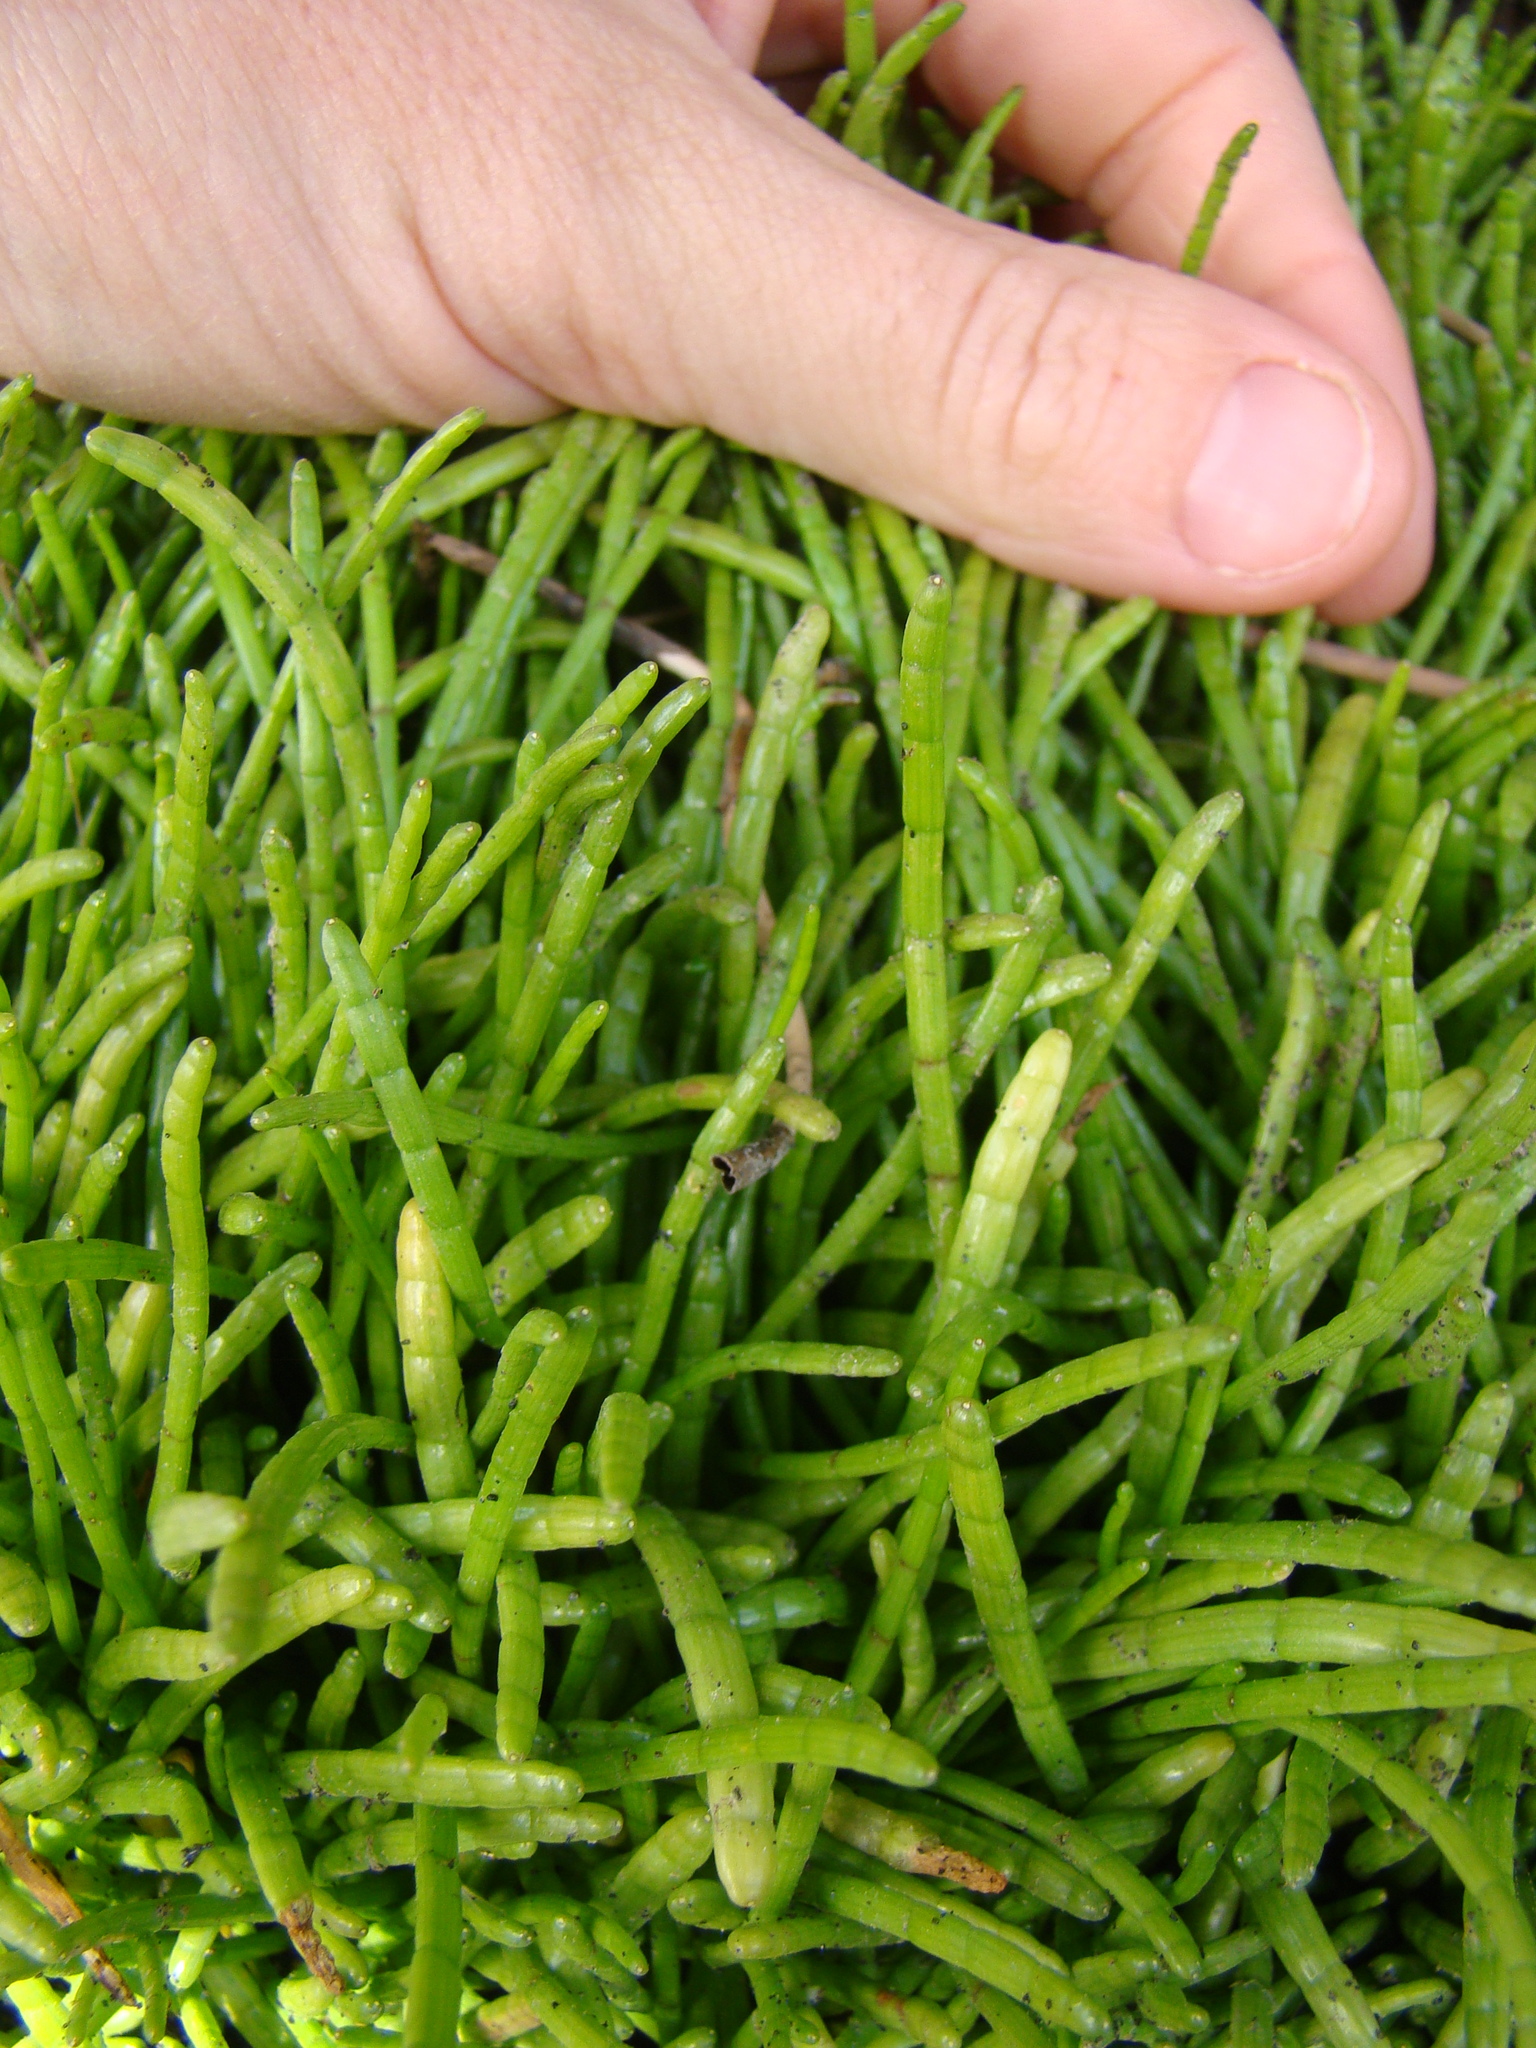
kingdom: Plantae
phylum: Tracheophyta
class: Magnoliopsida
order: Apiales
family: Apiaceae
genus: Lilaeopsis
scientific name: Lilaeopsis novae-zelandiae
